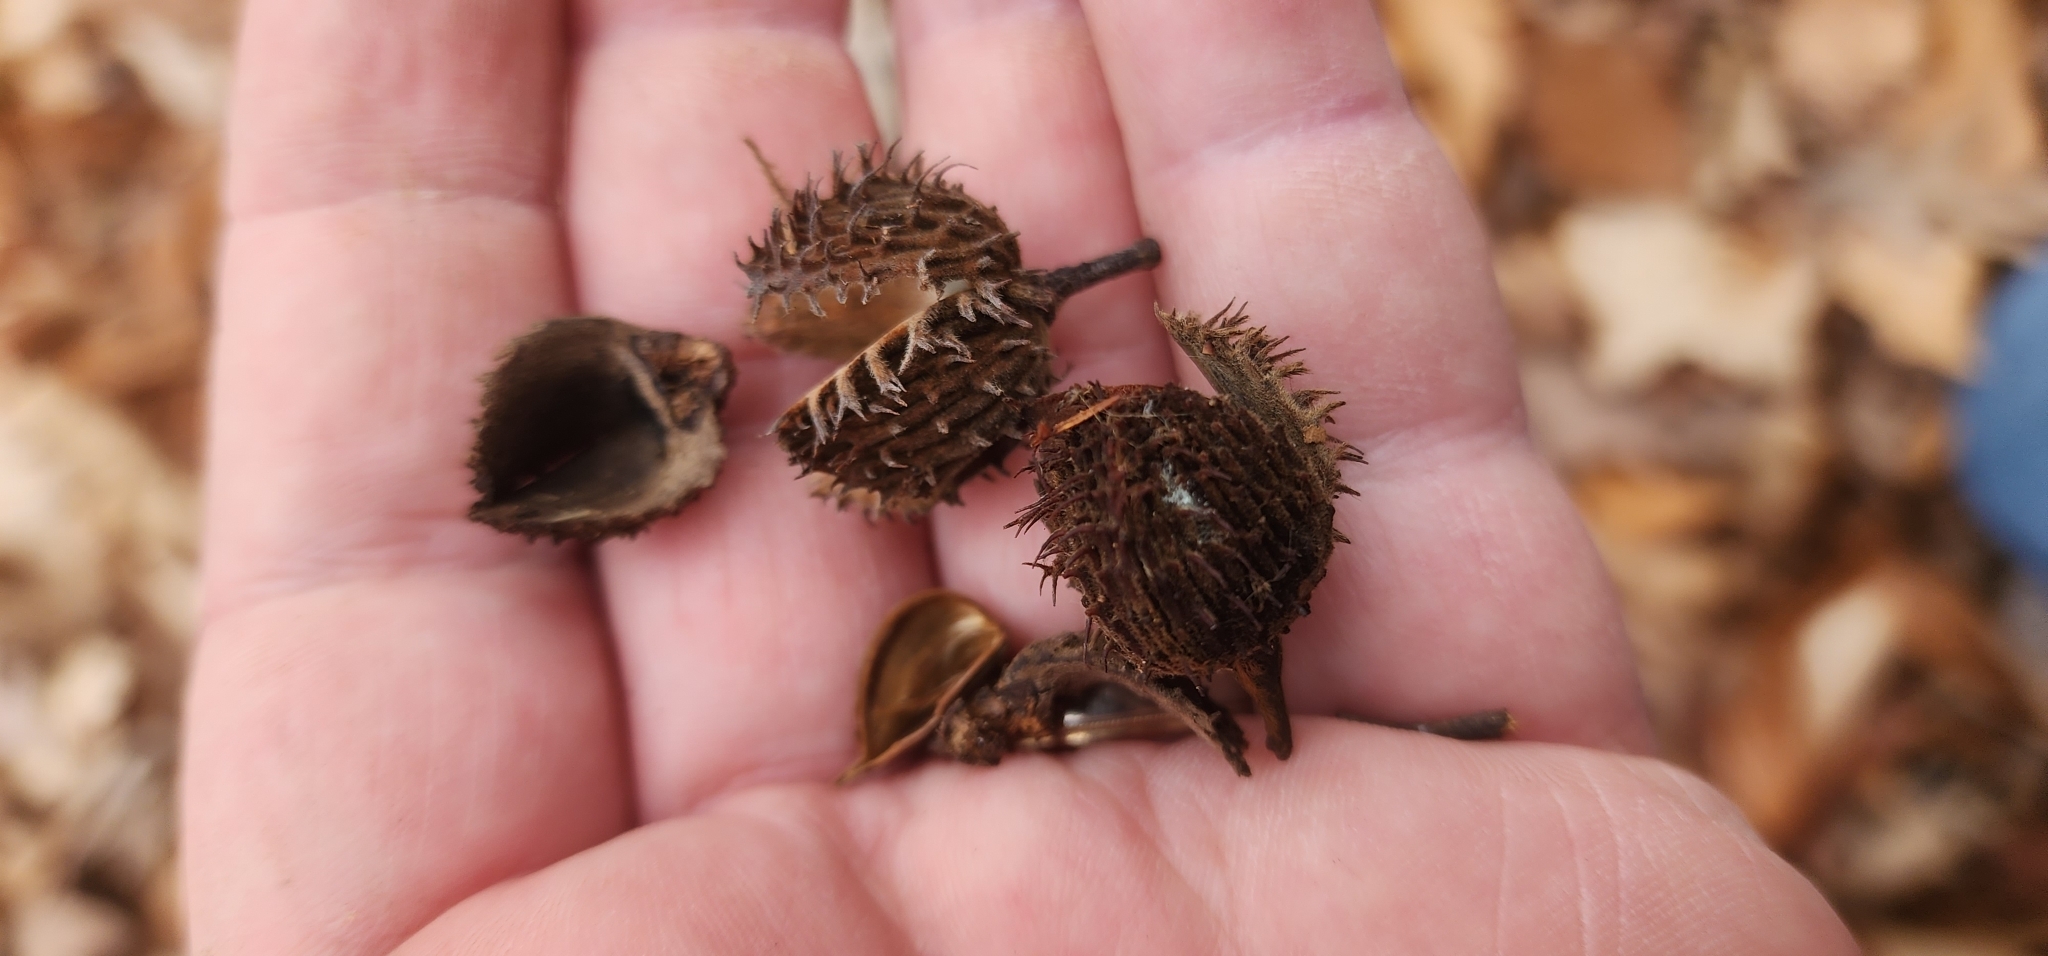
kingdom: Plantae
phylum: Tracheophyta
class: Magnoliopsida
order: Fagales
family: Fagaceae
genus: Fagus
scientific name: Fagus grandifolia
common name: American beech
